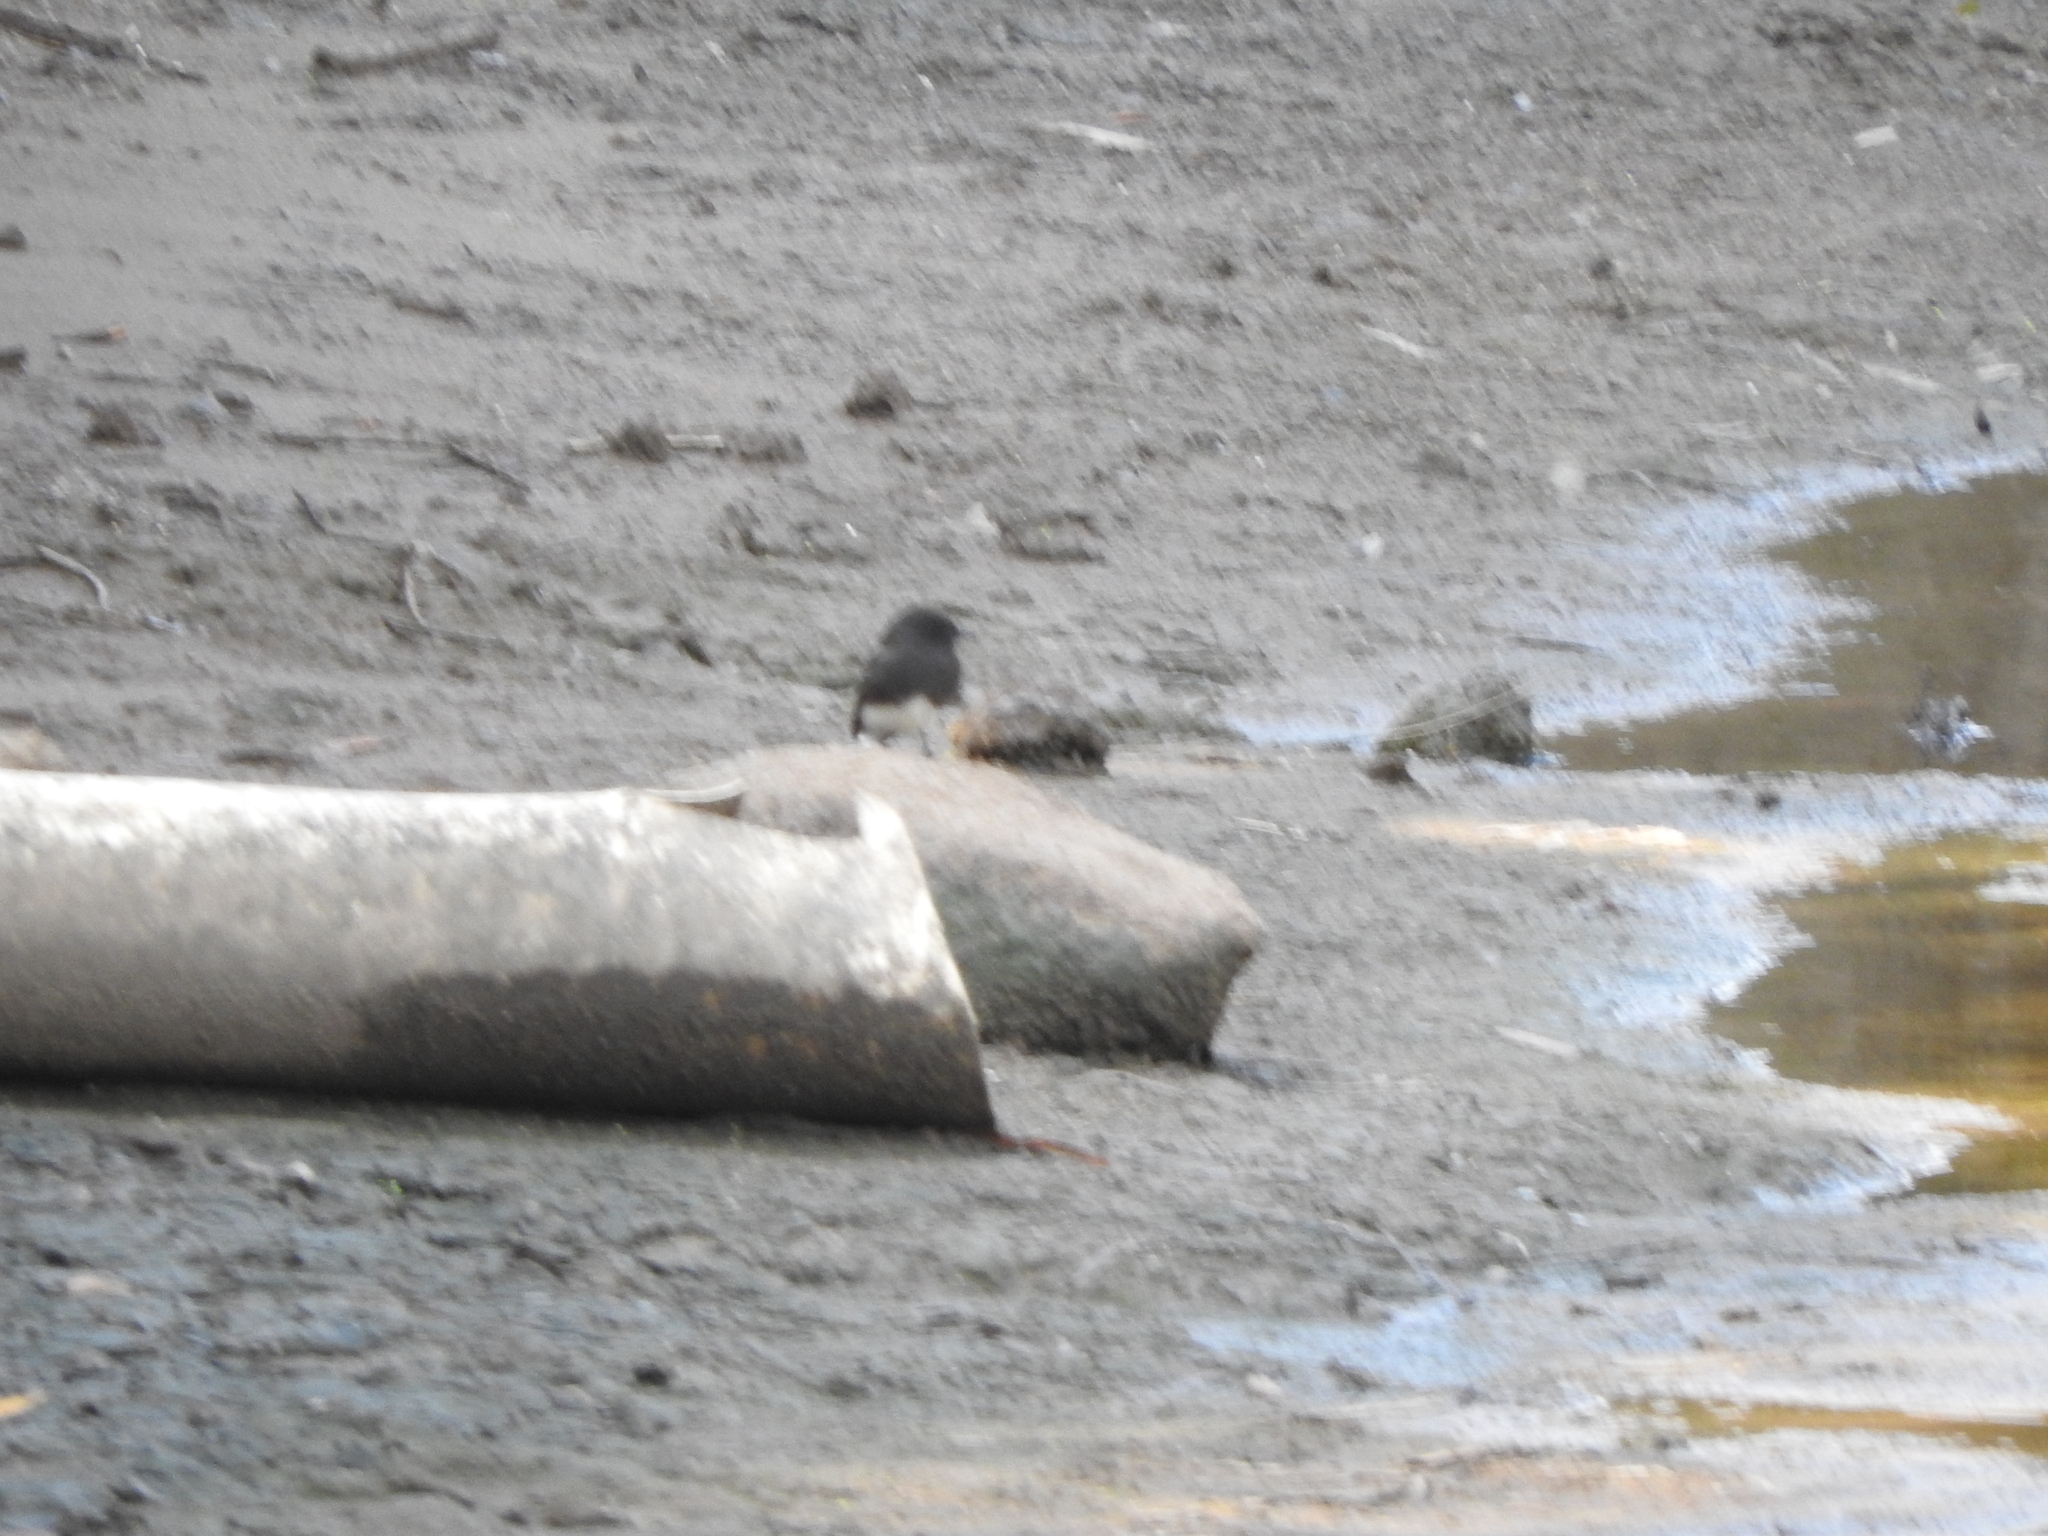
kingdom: Animalia
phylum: Chordata
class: Aves
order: Passeriformes
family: Tyrannidae
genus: Sayornis
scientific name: Sayornis nigricans
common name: Black phoebe
